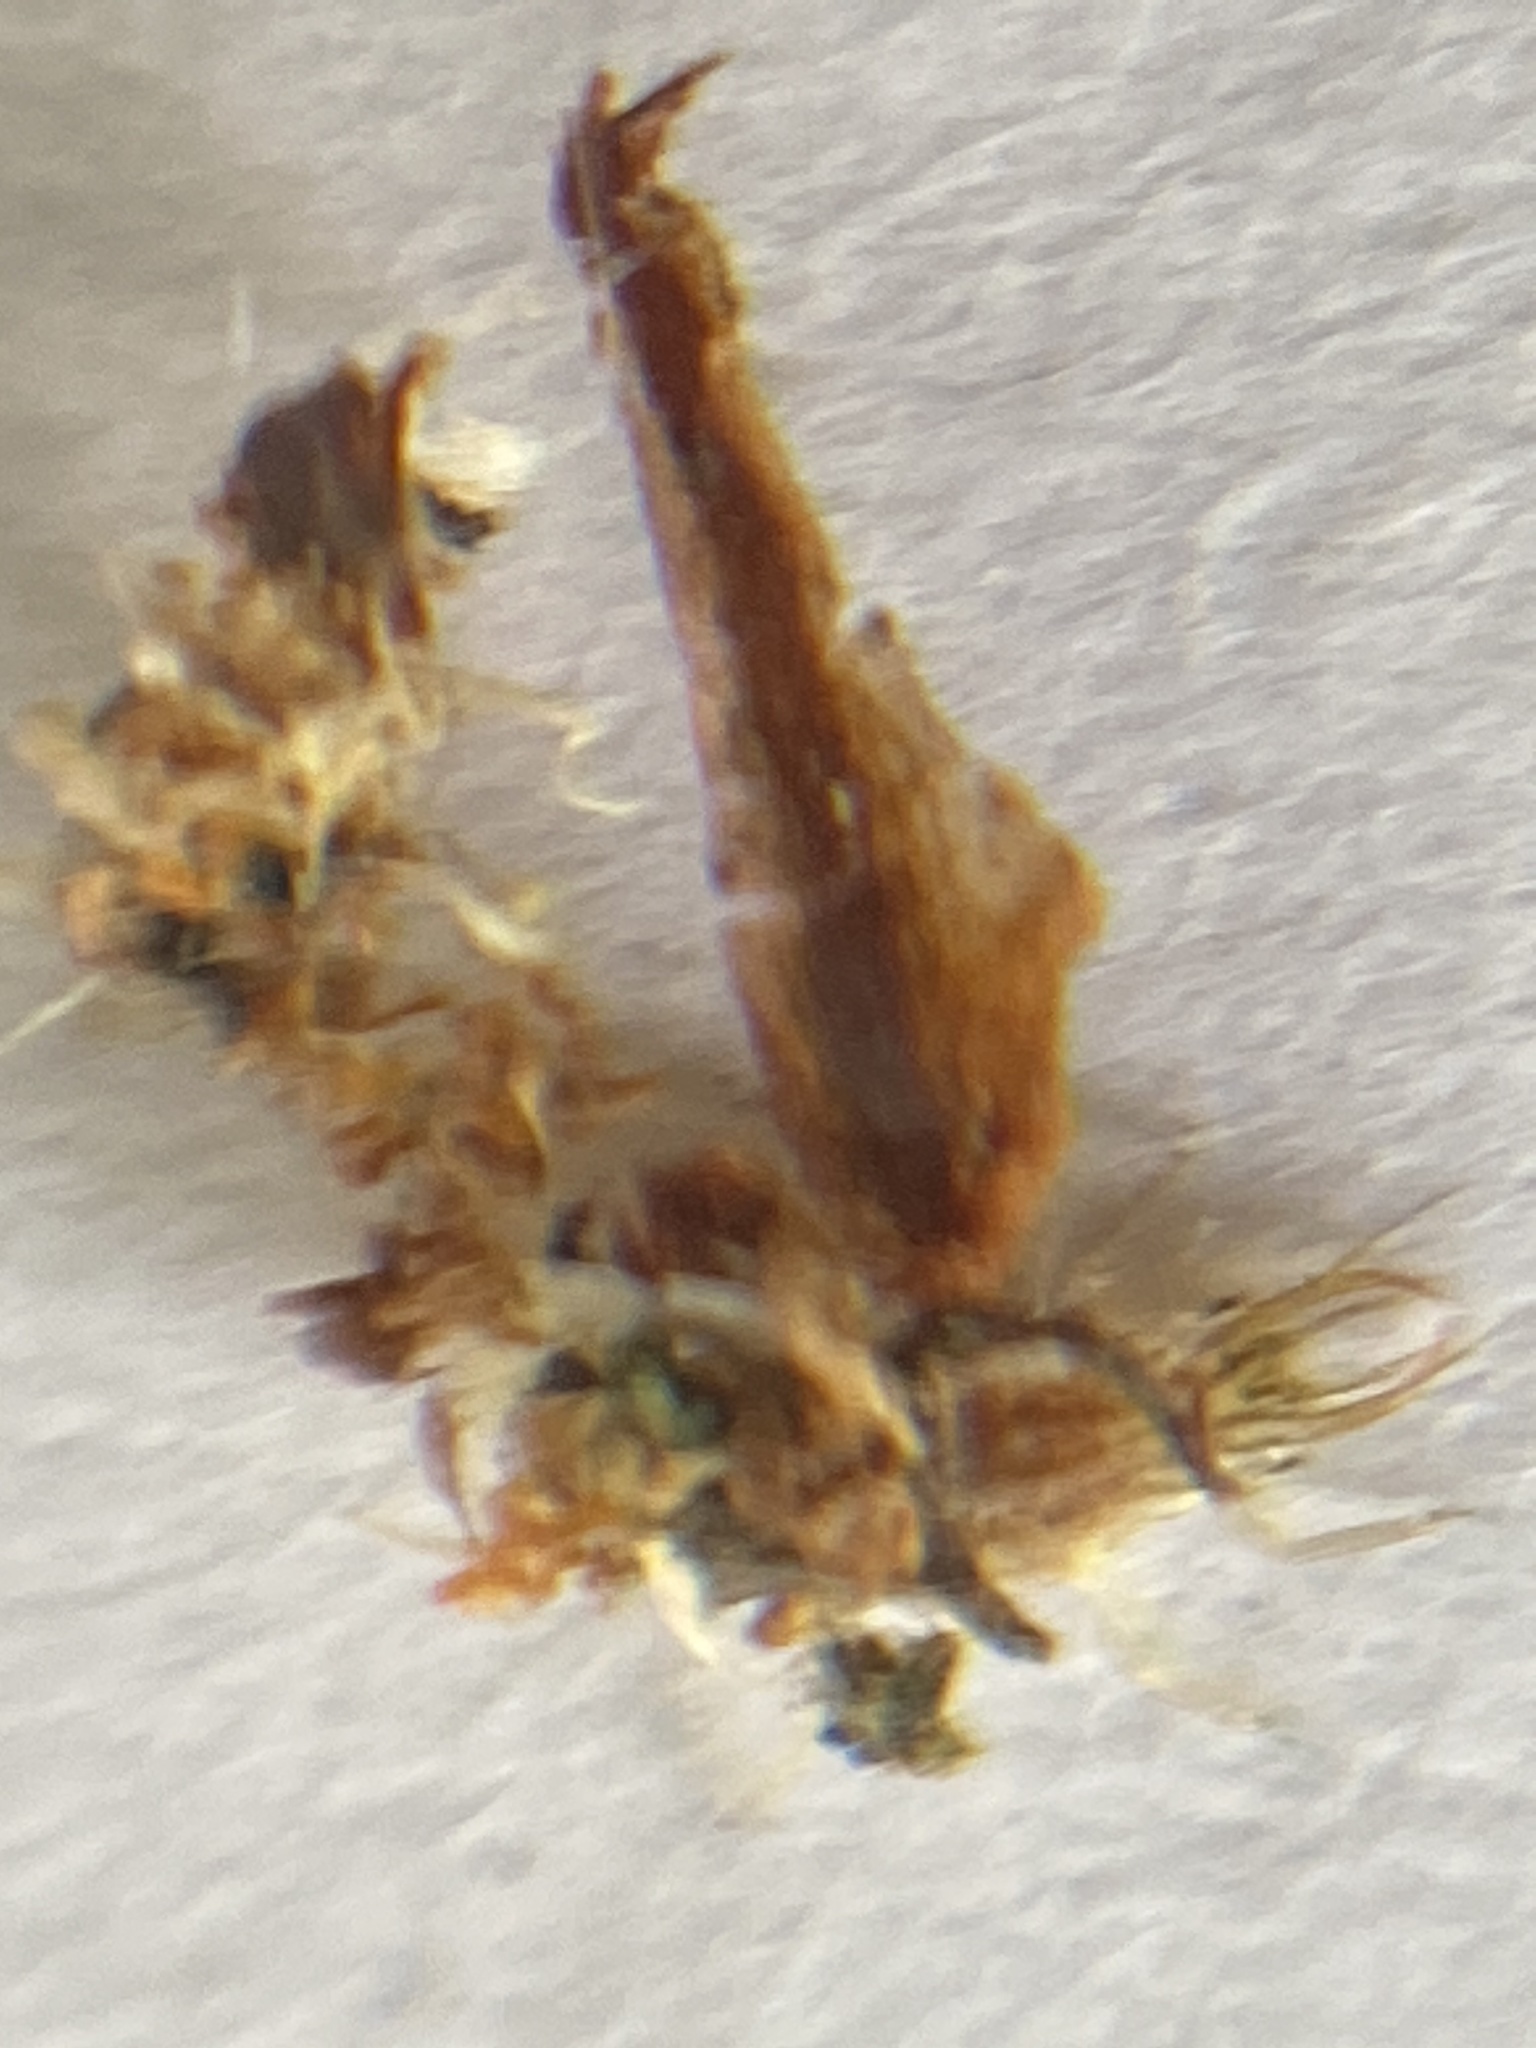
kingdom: Animalia
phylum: Arthropoda
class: Insecta
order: Neuroptera
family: Chrysopidae
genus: Mallada
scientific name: Mallada basalis
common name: Green lacewing
